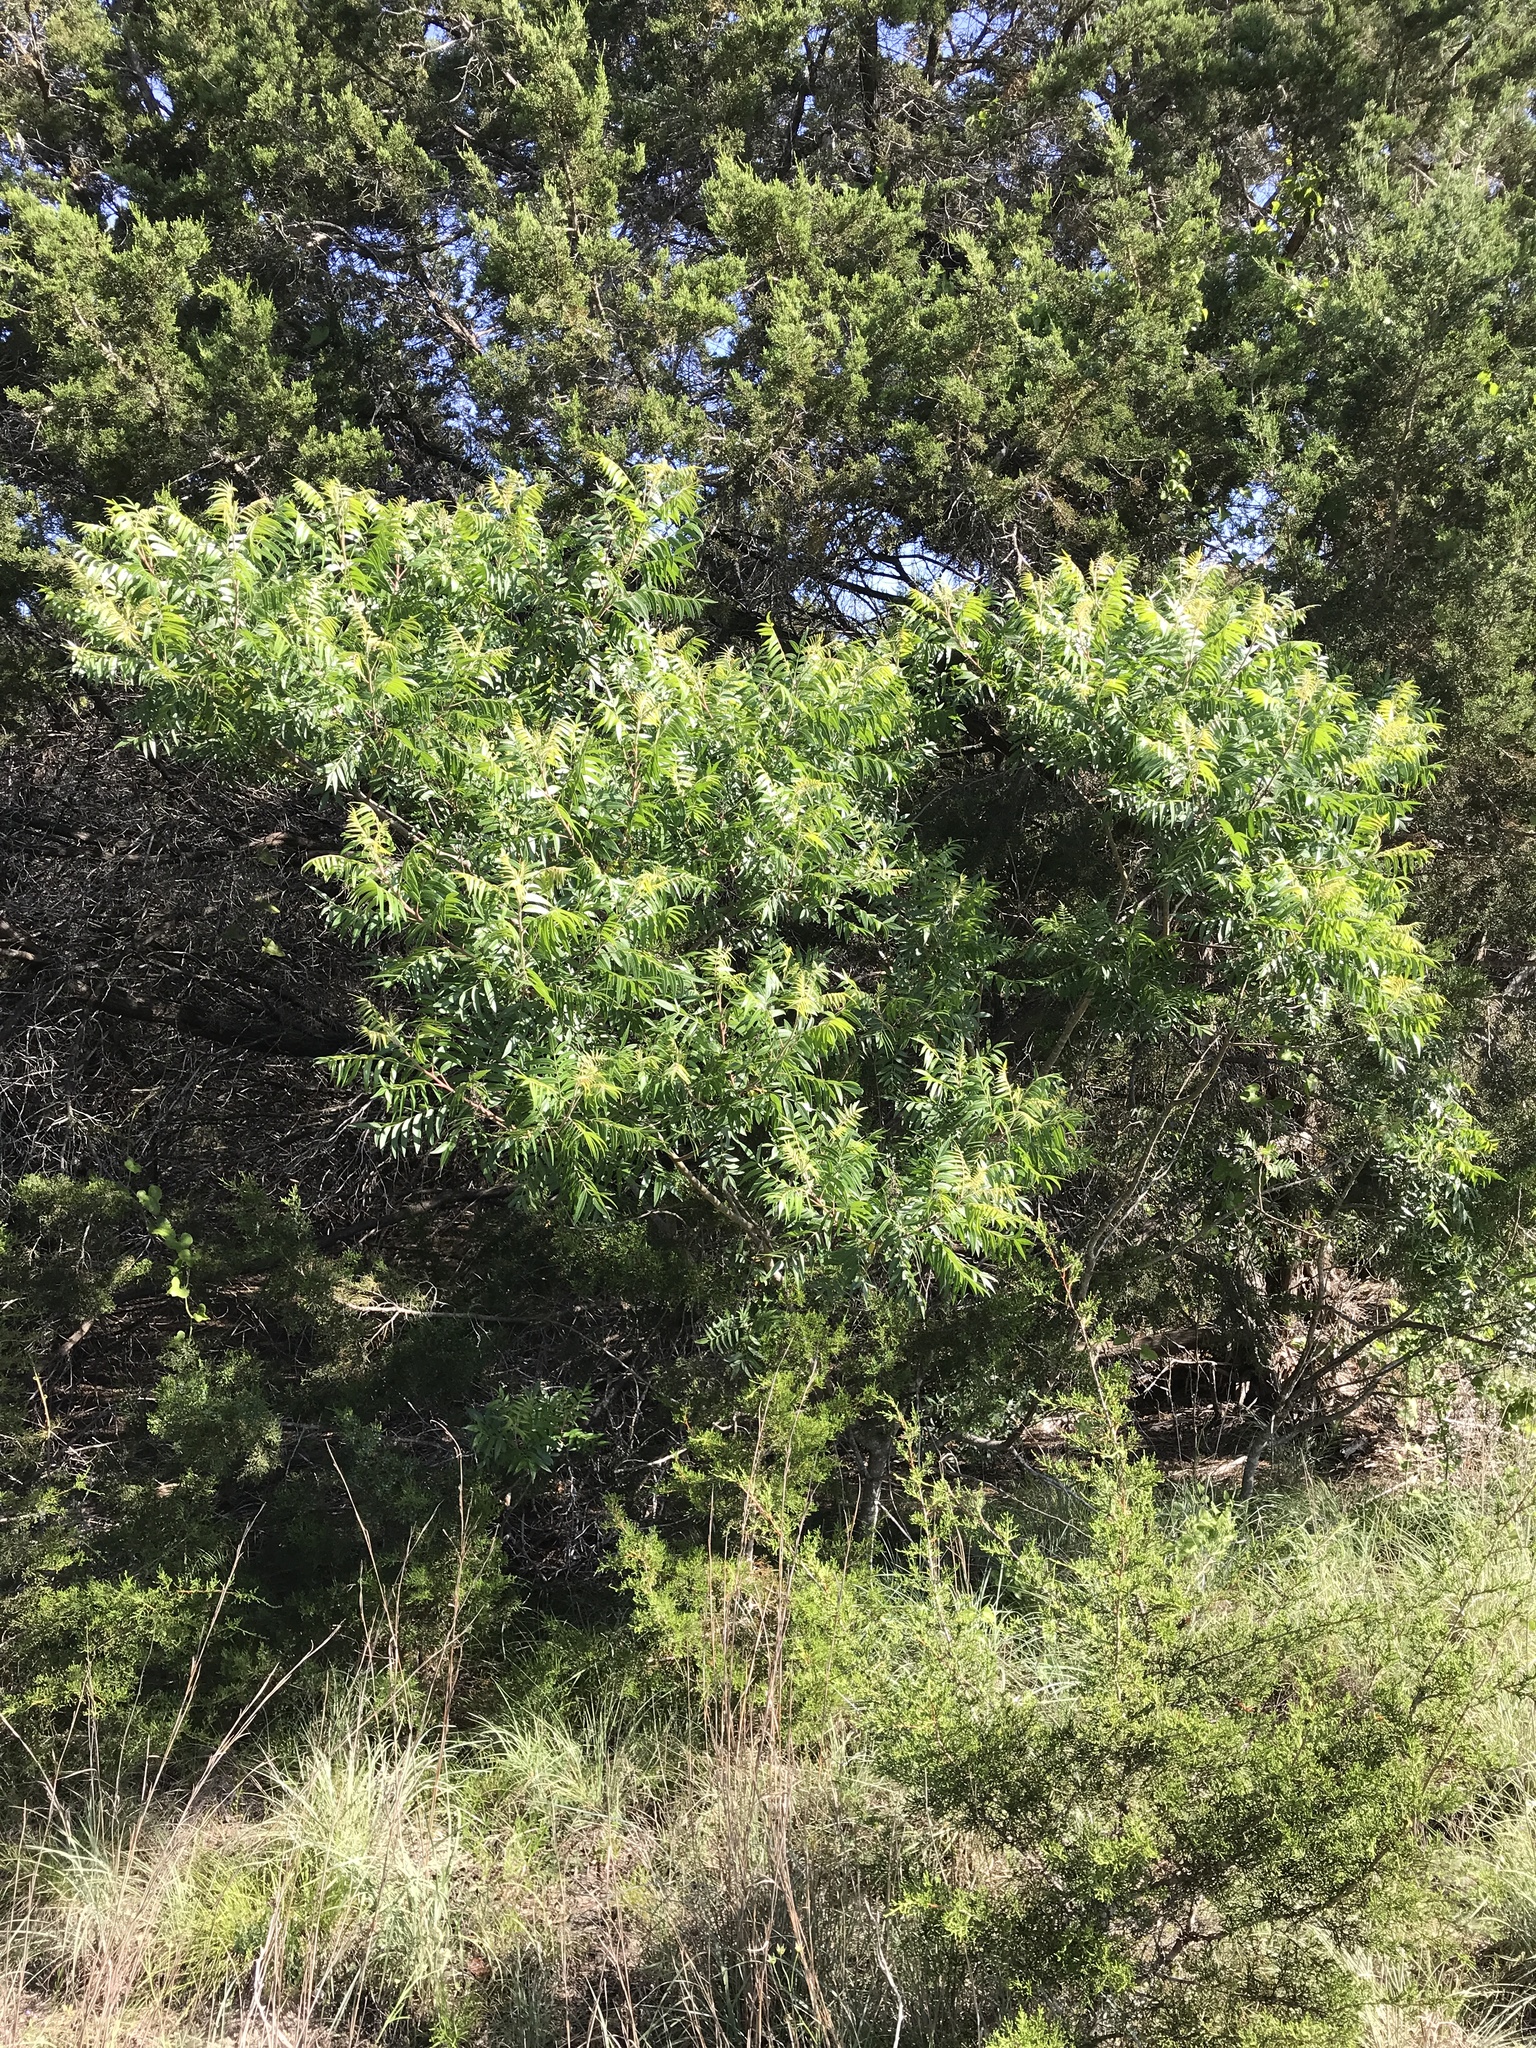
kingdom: Plantae
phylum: Tracheophyta
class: Magnoliopsida
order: Sapindales
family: Anacardiaceae
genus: Rhus
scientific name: Rhus lanceolata
